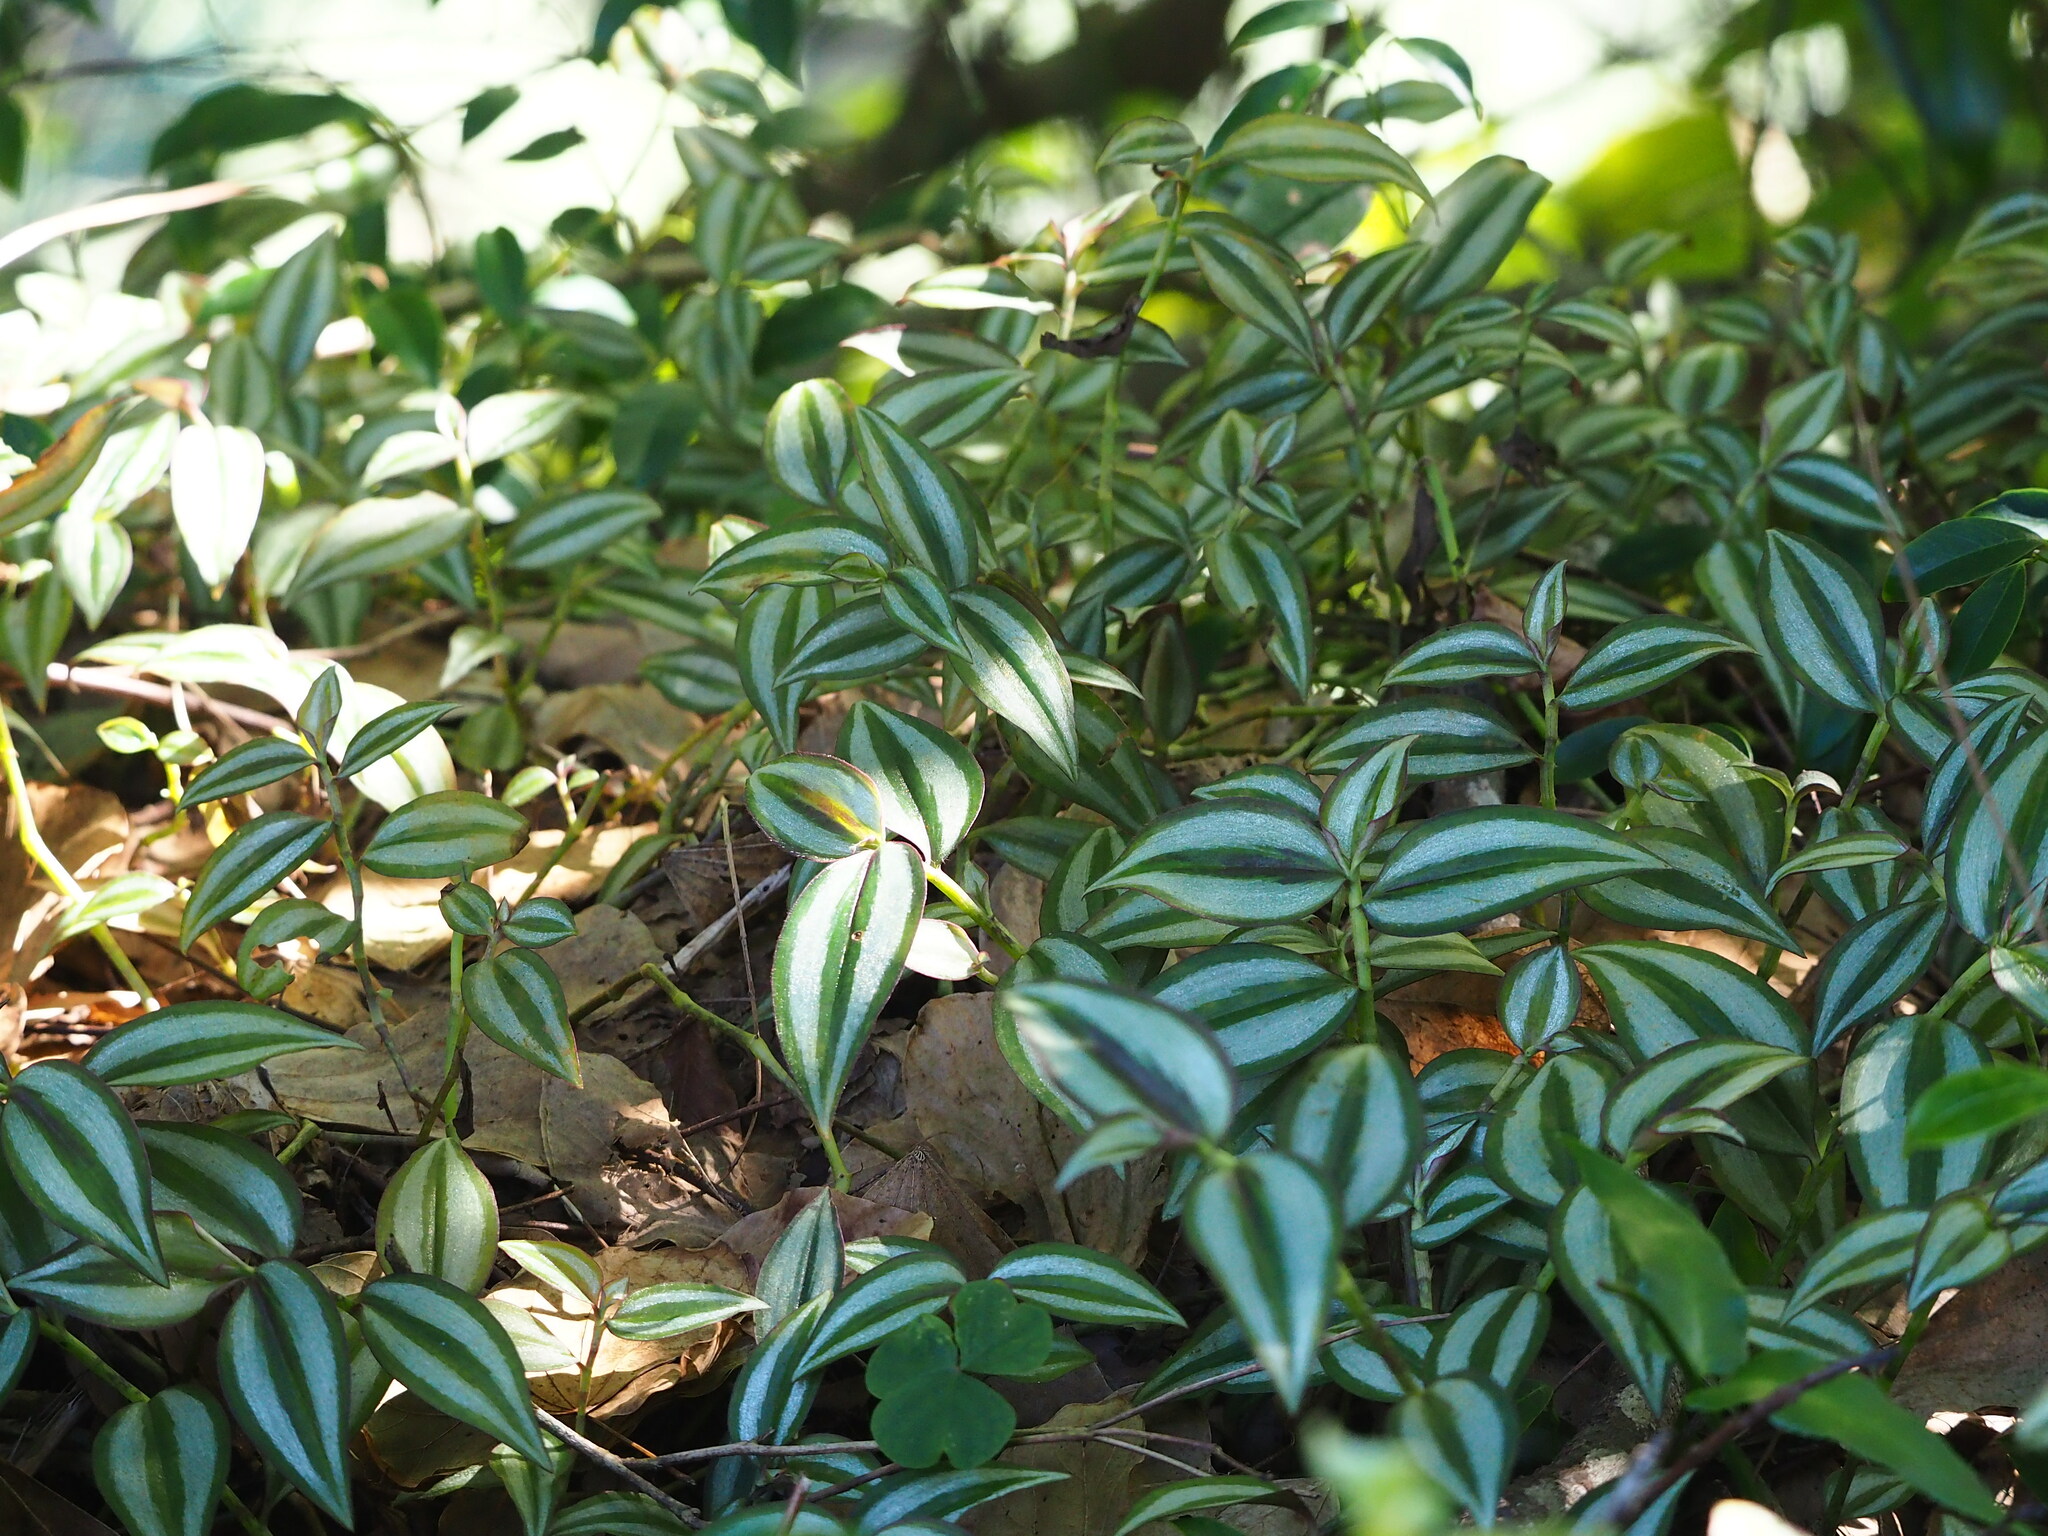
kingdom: Plantae
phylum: Tracheophyta
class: Liliopsida
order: Commelinales
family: Commelinaceae
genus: Tradescantia
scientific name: Tradescantia zebrina
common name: Inchplant
